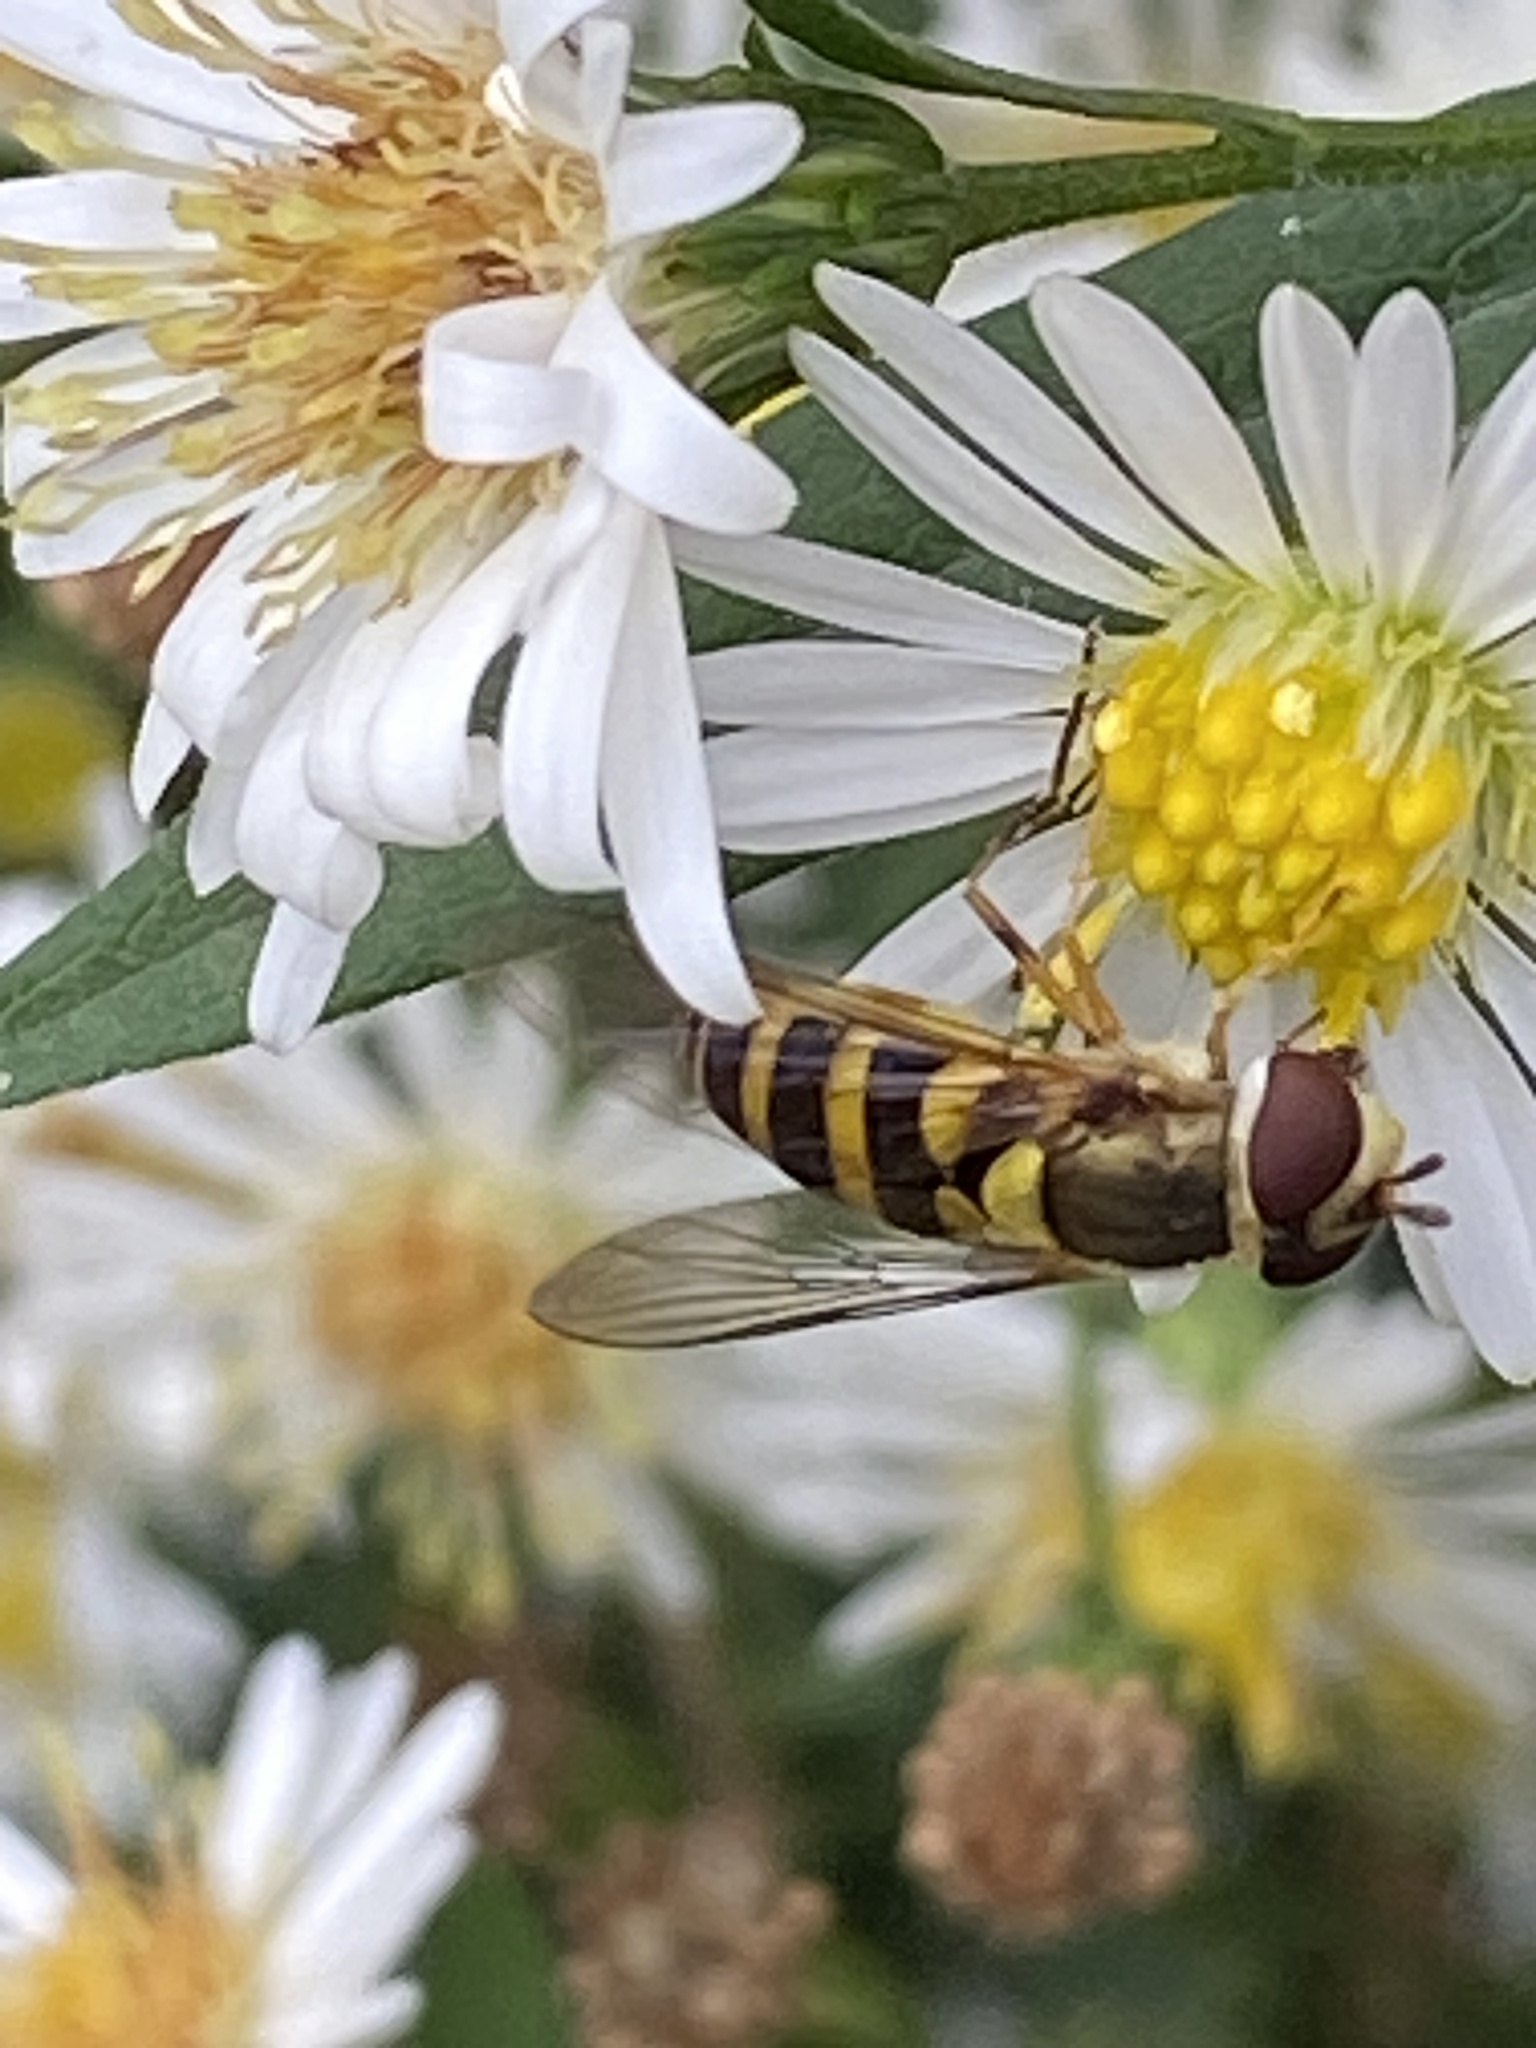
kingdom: Animalia
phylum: Arthropoda
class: Insecta
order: Diptera
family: Syrphidae
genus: Syrphus
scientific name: Syrphus rectus
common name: Yellow-legged flower fly
